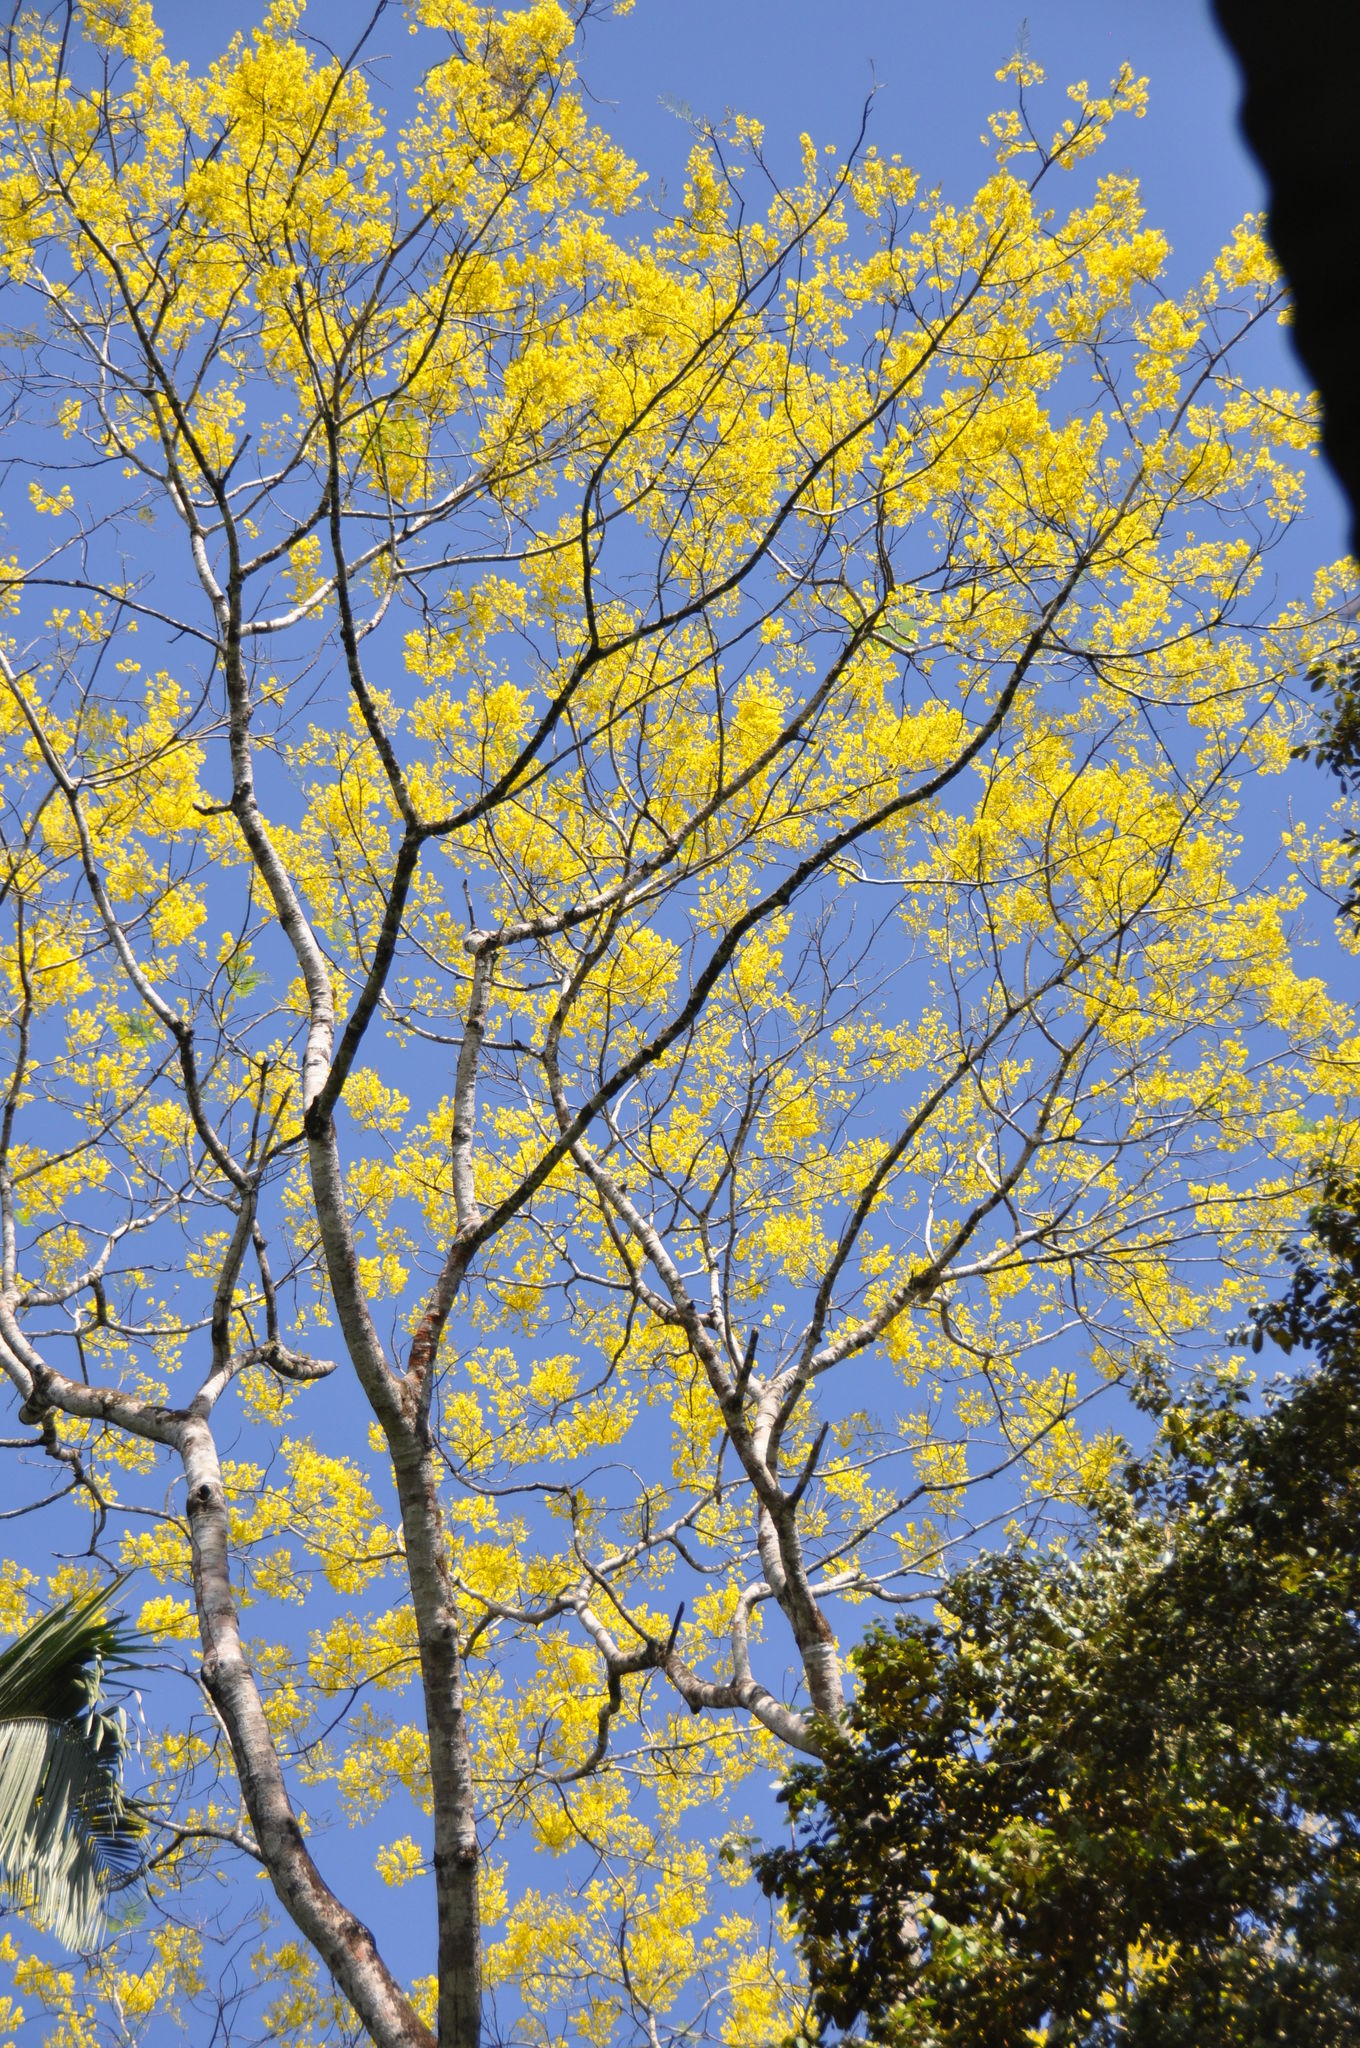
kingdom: Plantae
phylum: Tracheophyta
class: Magnoliopsida
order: Fabales
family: Fabaceae
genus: Schizolobium
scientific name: Schizolobium parahyba
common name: Brazilian firetree
